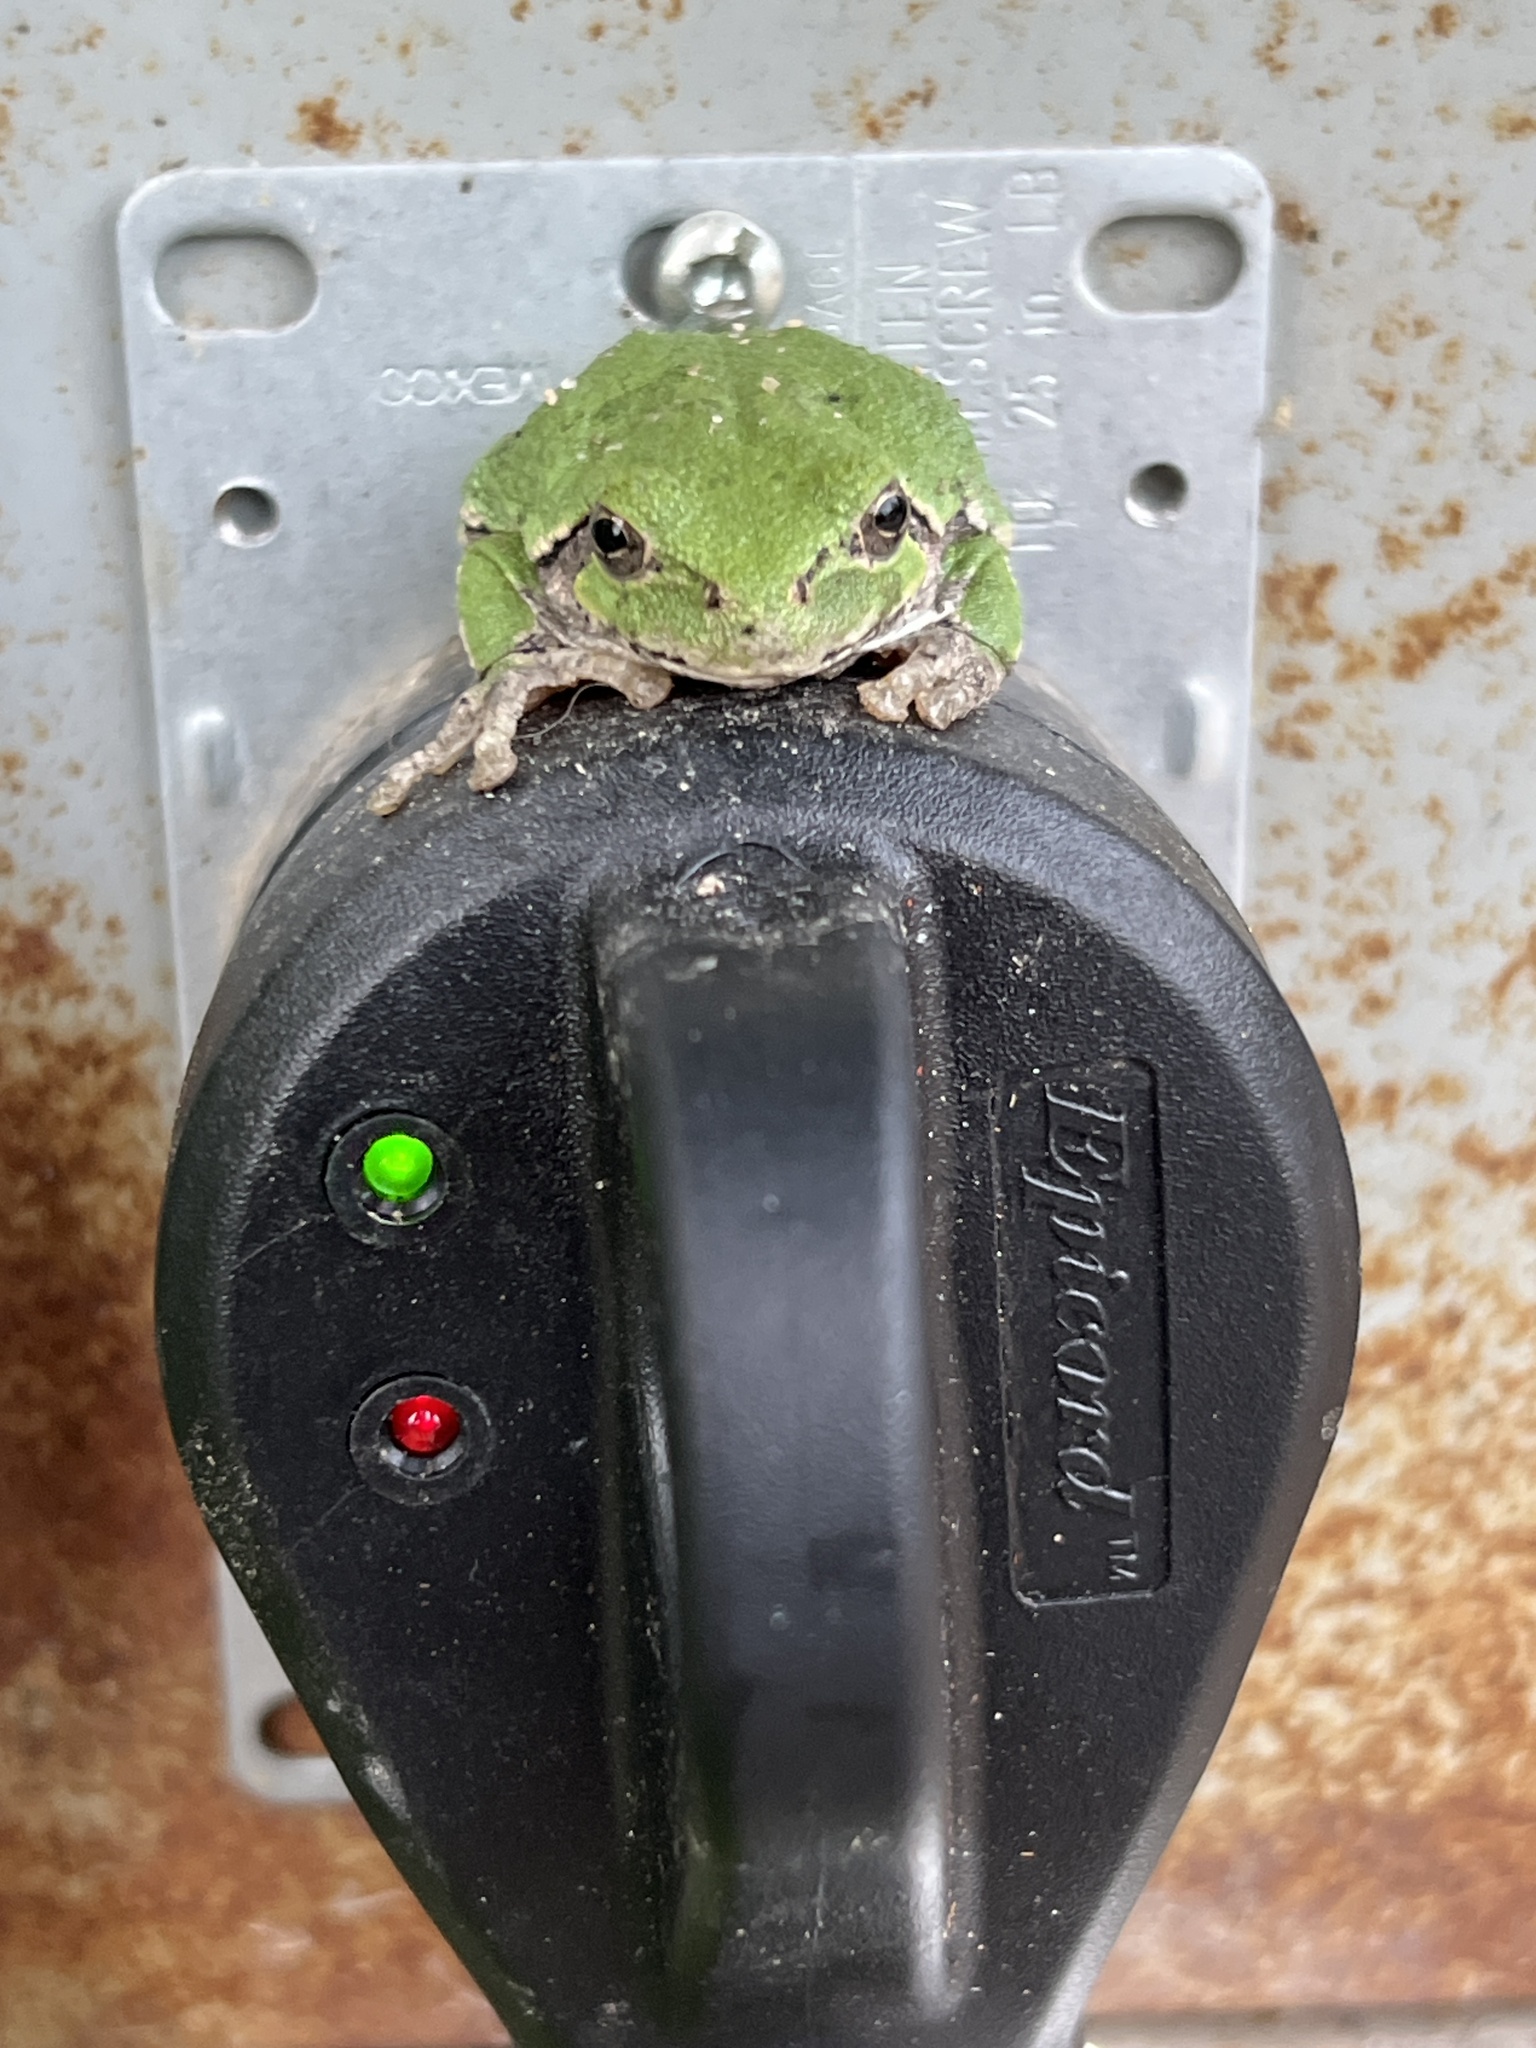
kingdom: Animalia
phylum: Chordata
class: Amphibia
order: Anura
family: Hylidae
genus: Dryophytes
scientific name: Dryophytes versicolor
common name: Gray treefrog
